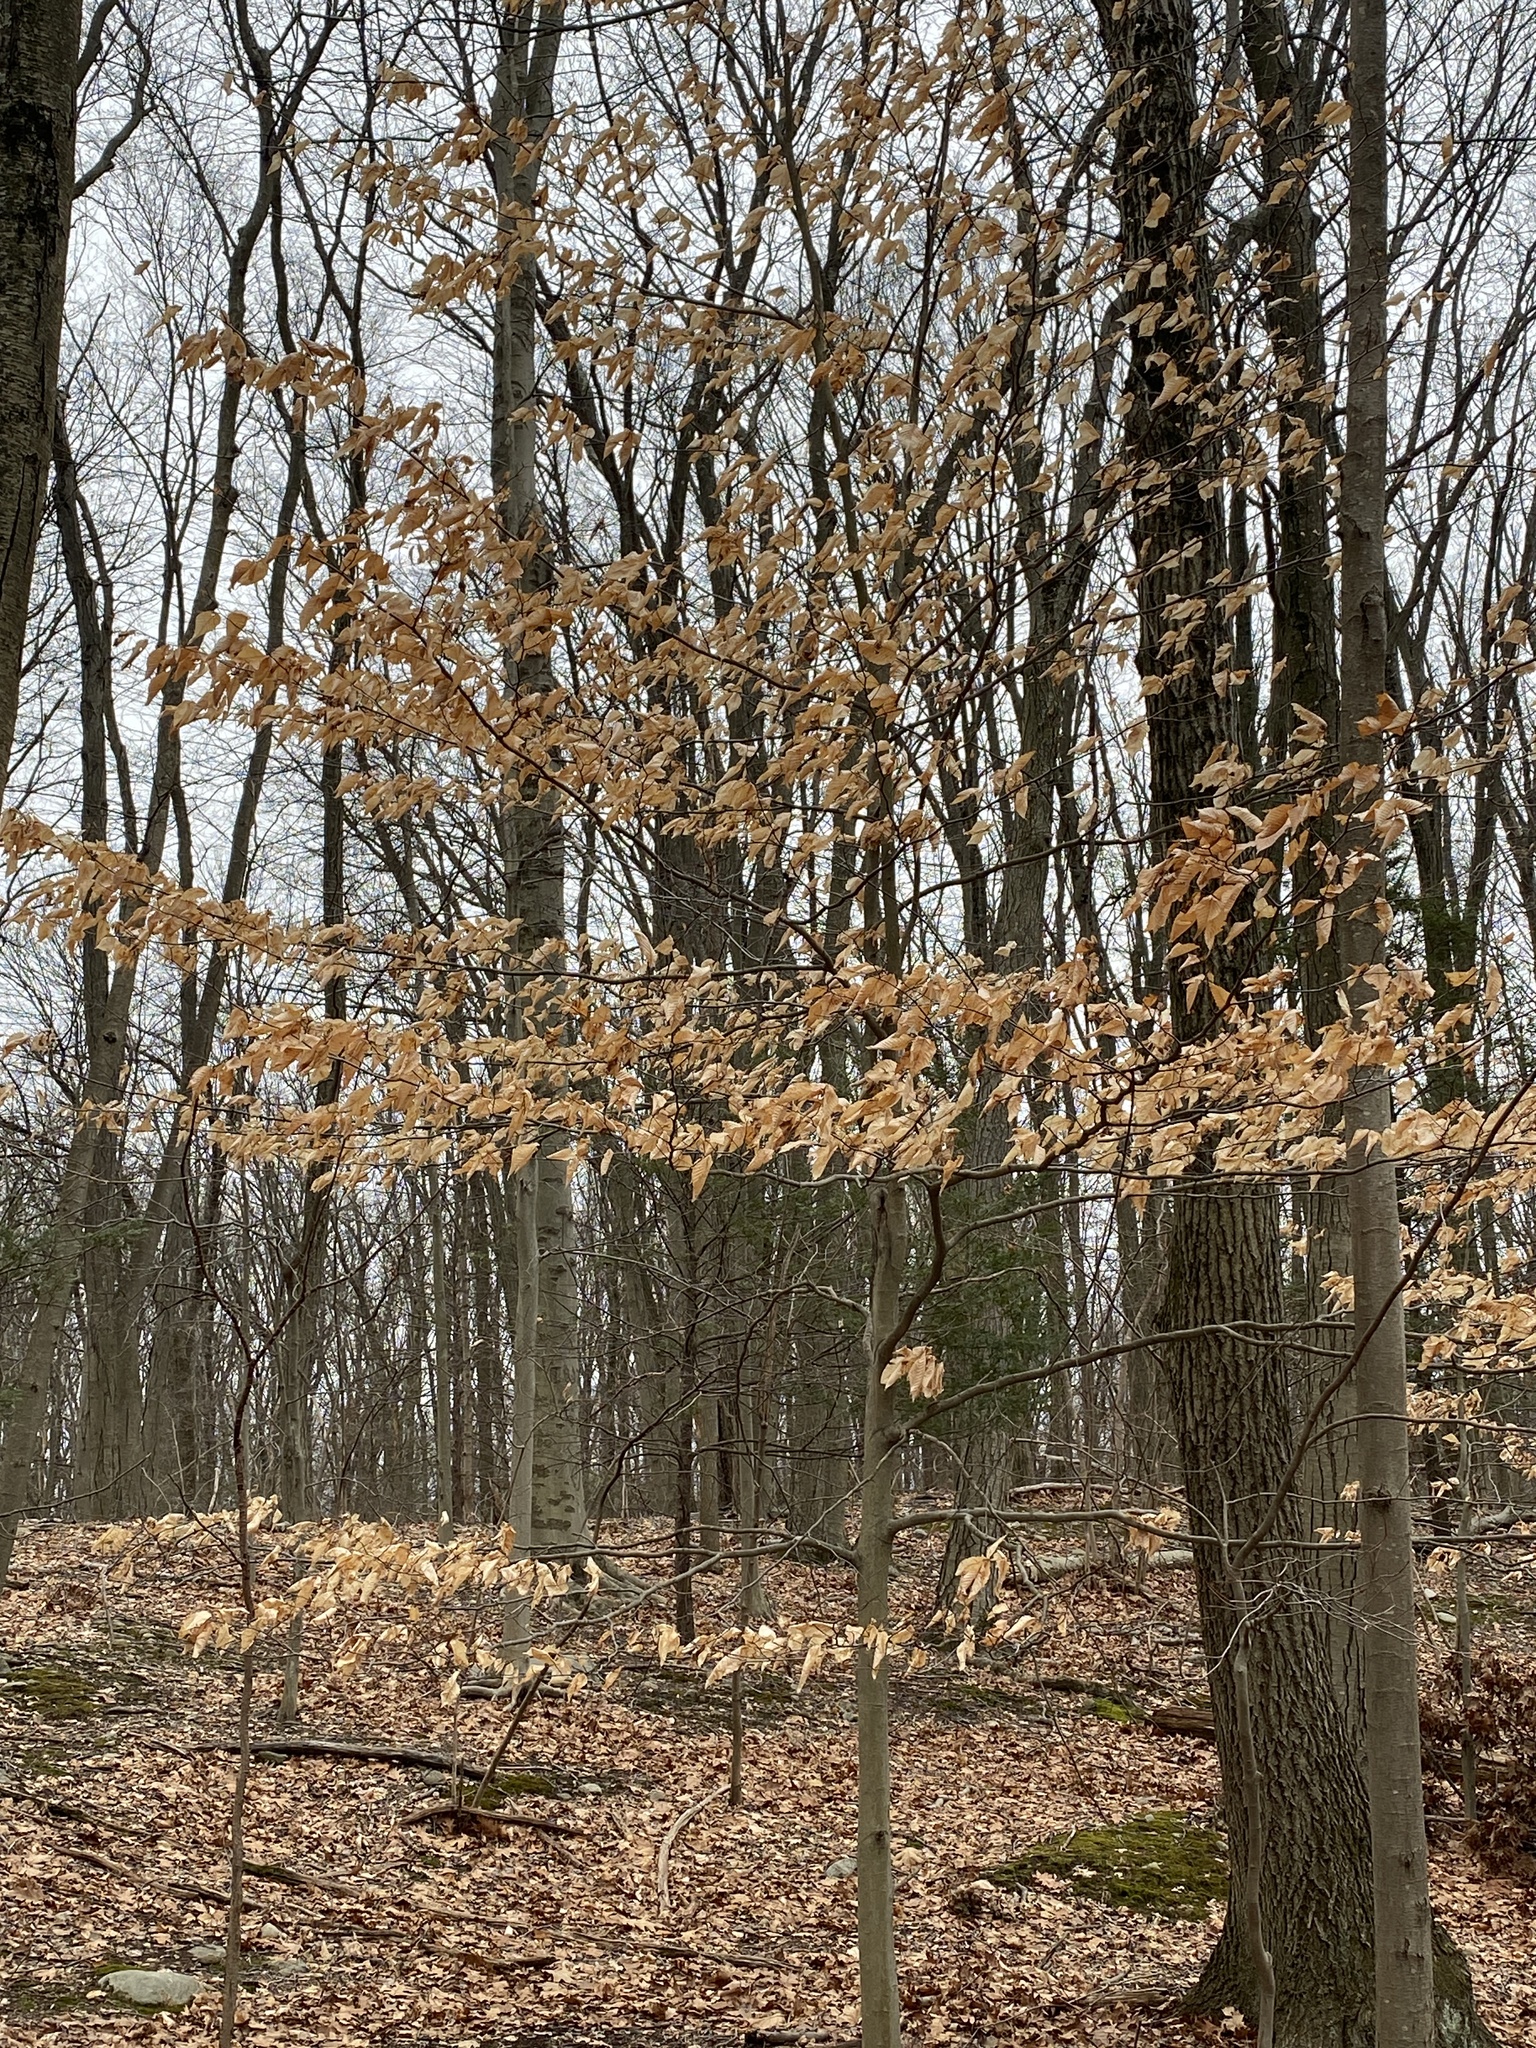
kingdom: Plantae
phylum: Tracheophyta
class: Magnoliopsida
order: Fagales
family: Fagaceae
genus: Fagus
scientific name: Fagus grandifolia
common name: American beech
